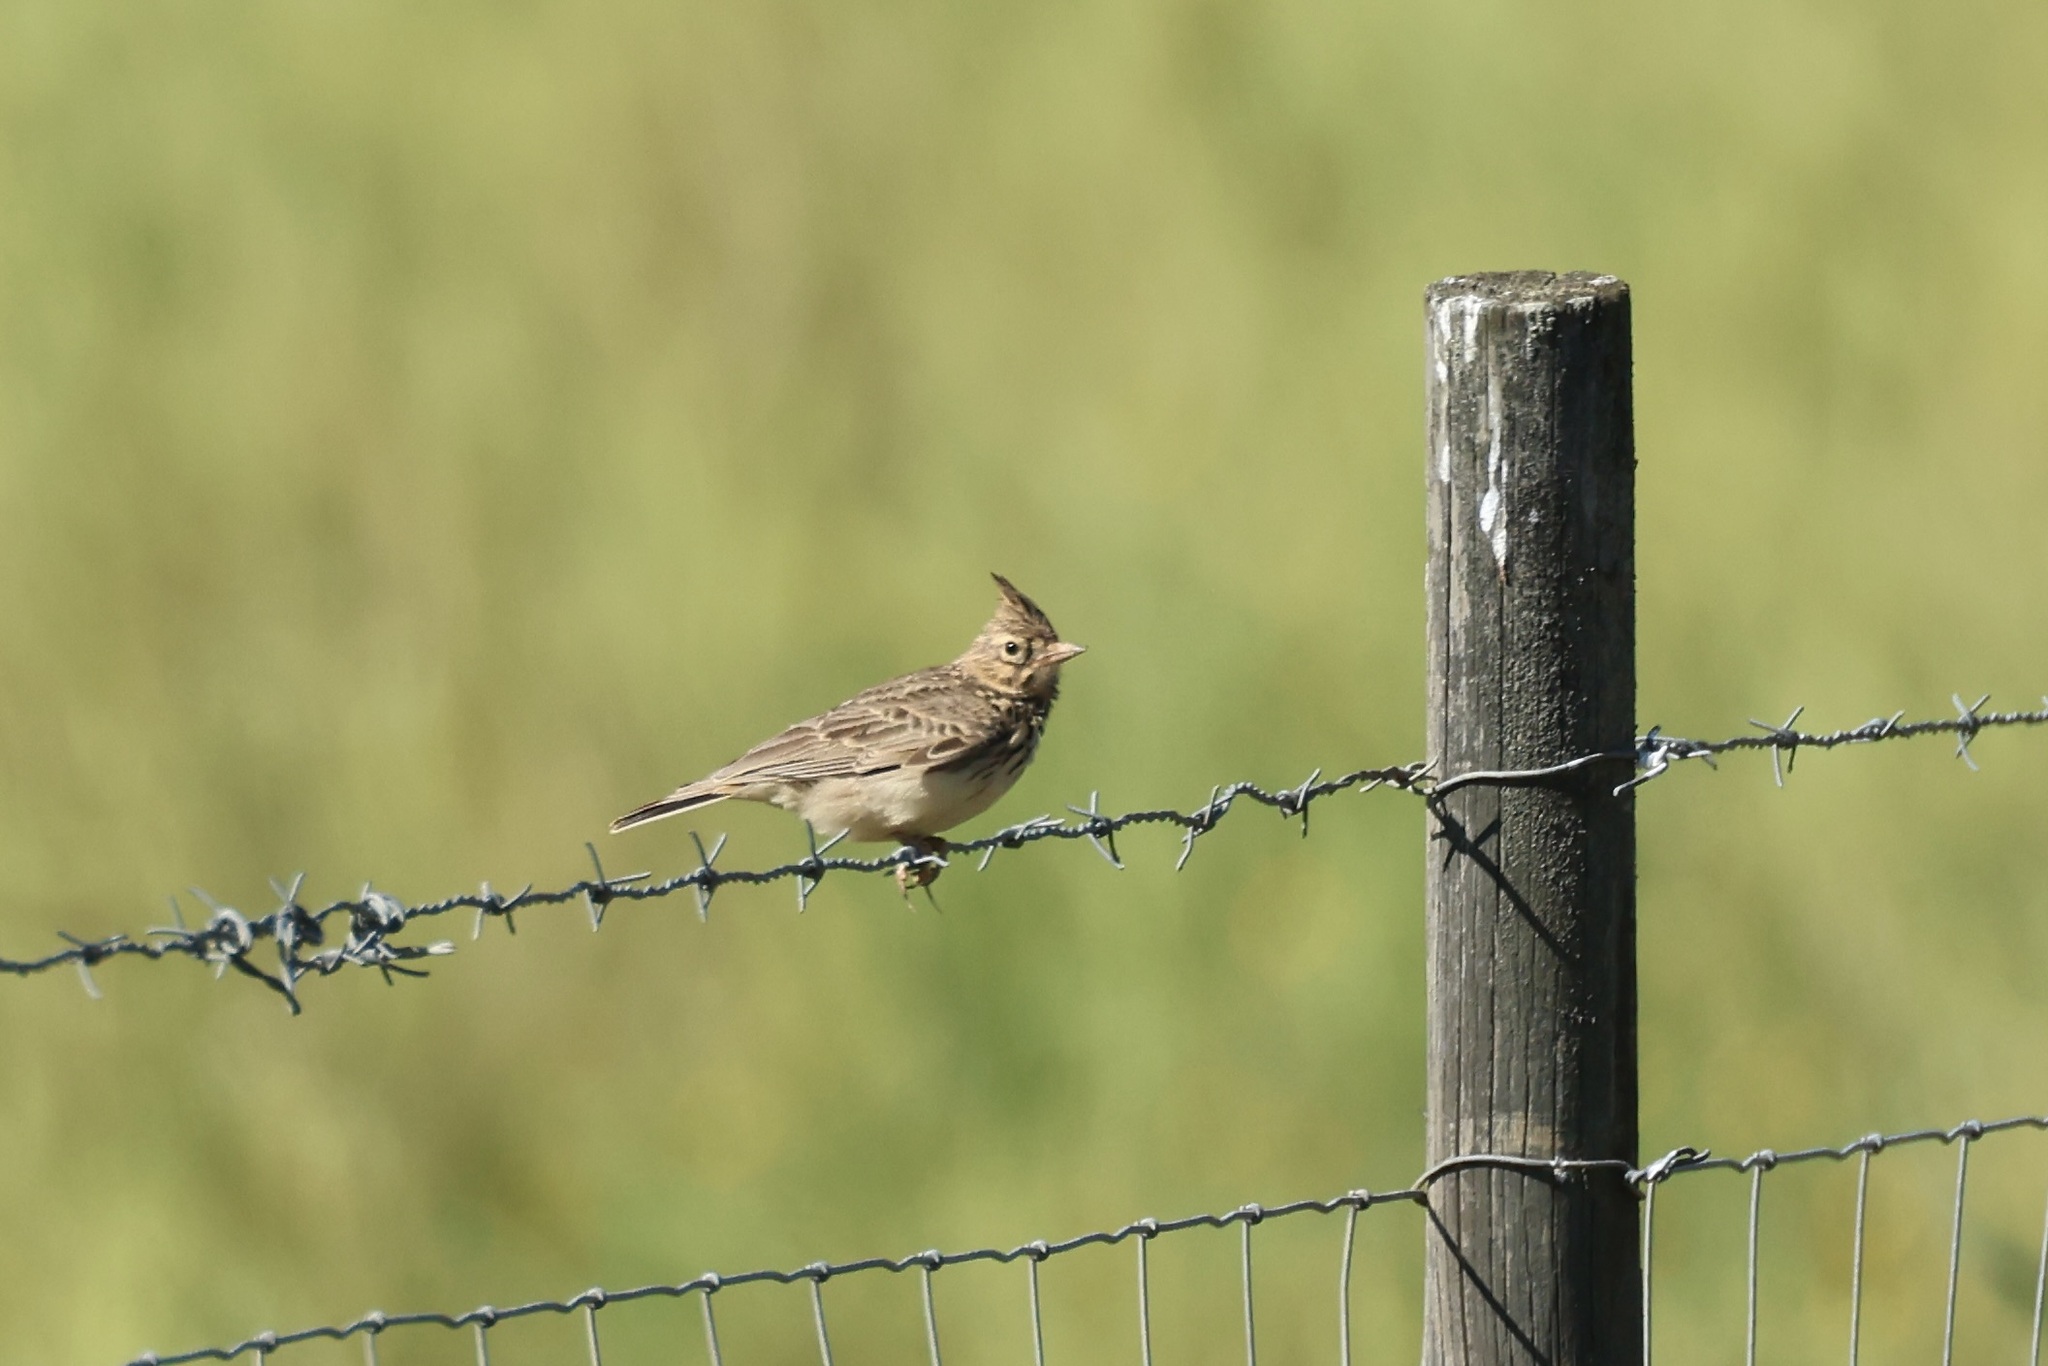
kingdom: Animalia
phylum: Chordata
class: Aves
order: Passeriformes
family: Alaudidae
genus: Galerida
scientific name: Galerida theklae
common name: Thekla lark
